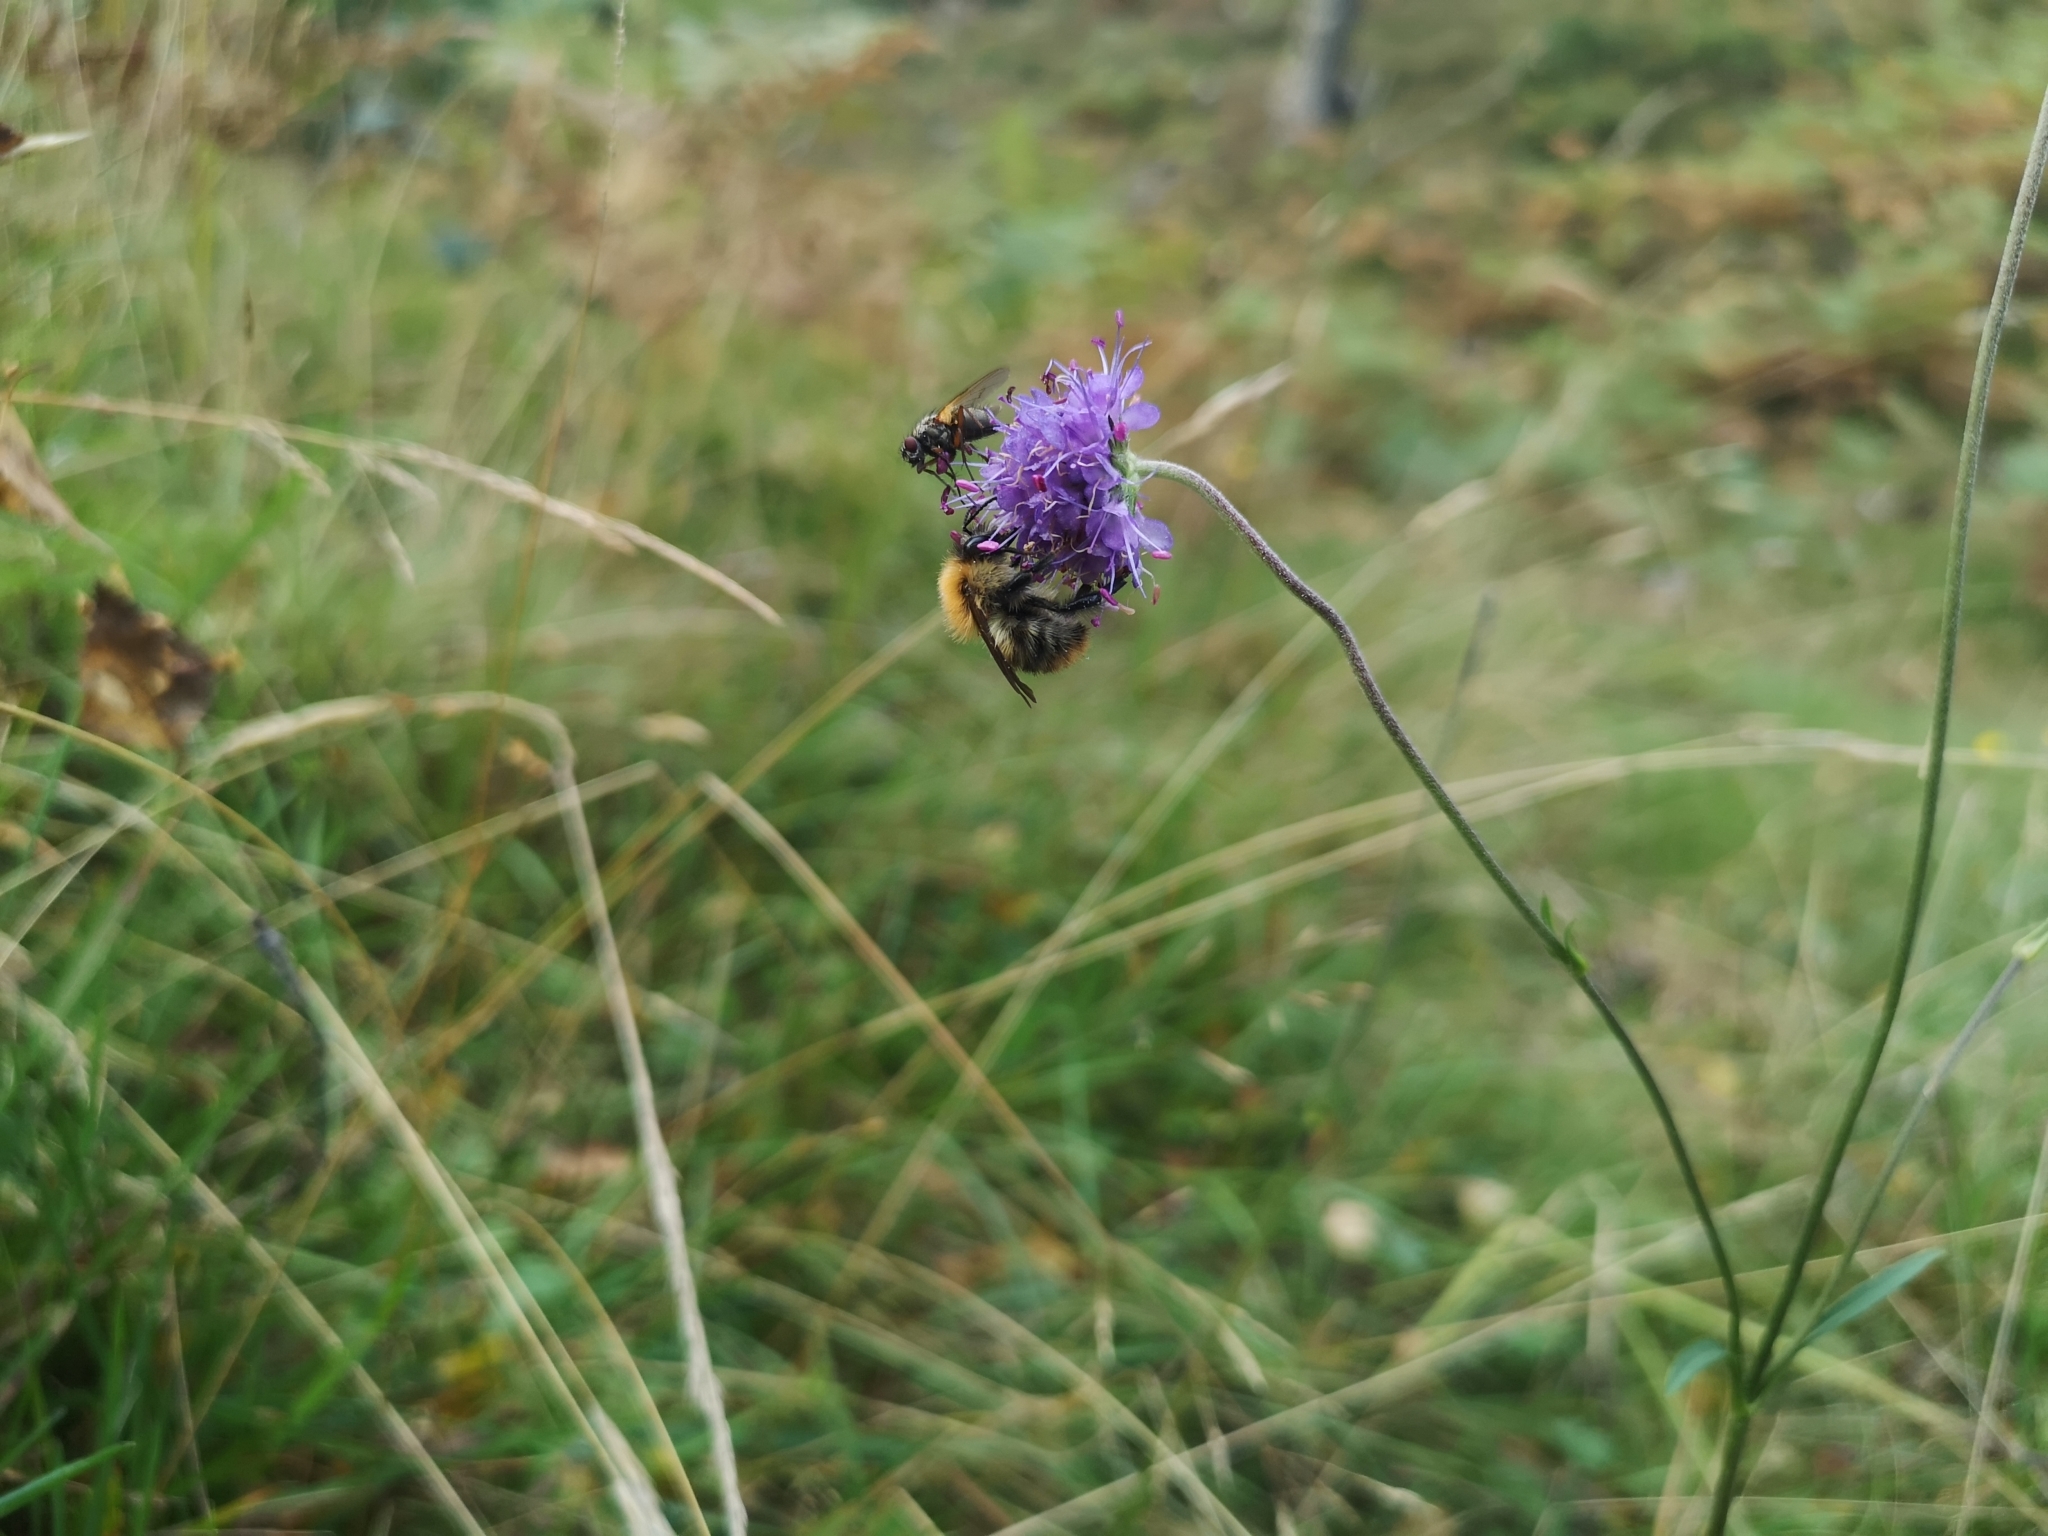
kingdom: Animalia
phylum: Arthropoda
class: Insecta
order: Hymenoptera
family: Apidae
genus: Bombus
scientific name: Bombus pascuorum
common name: Common carder bee
